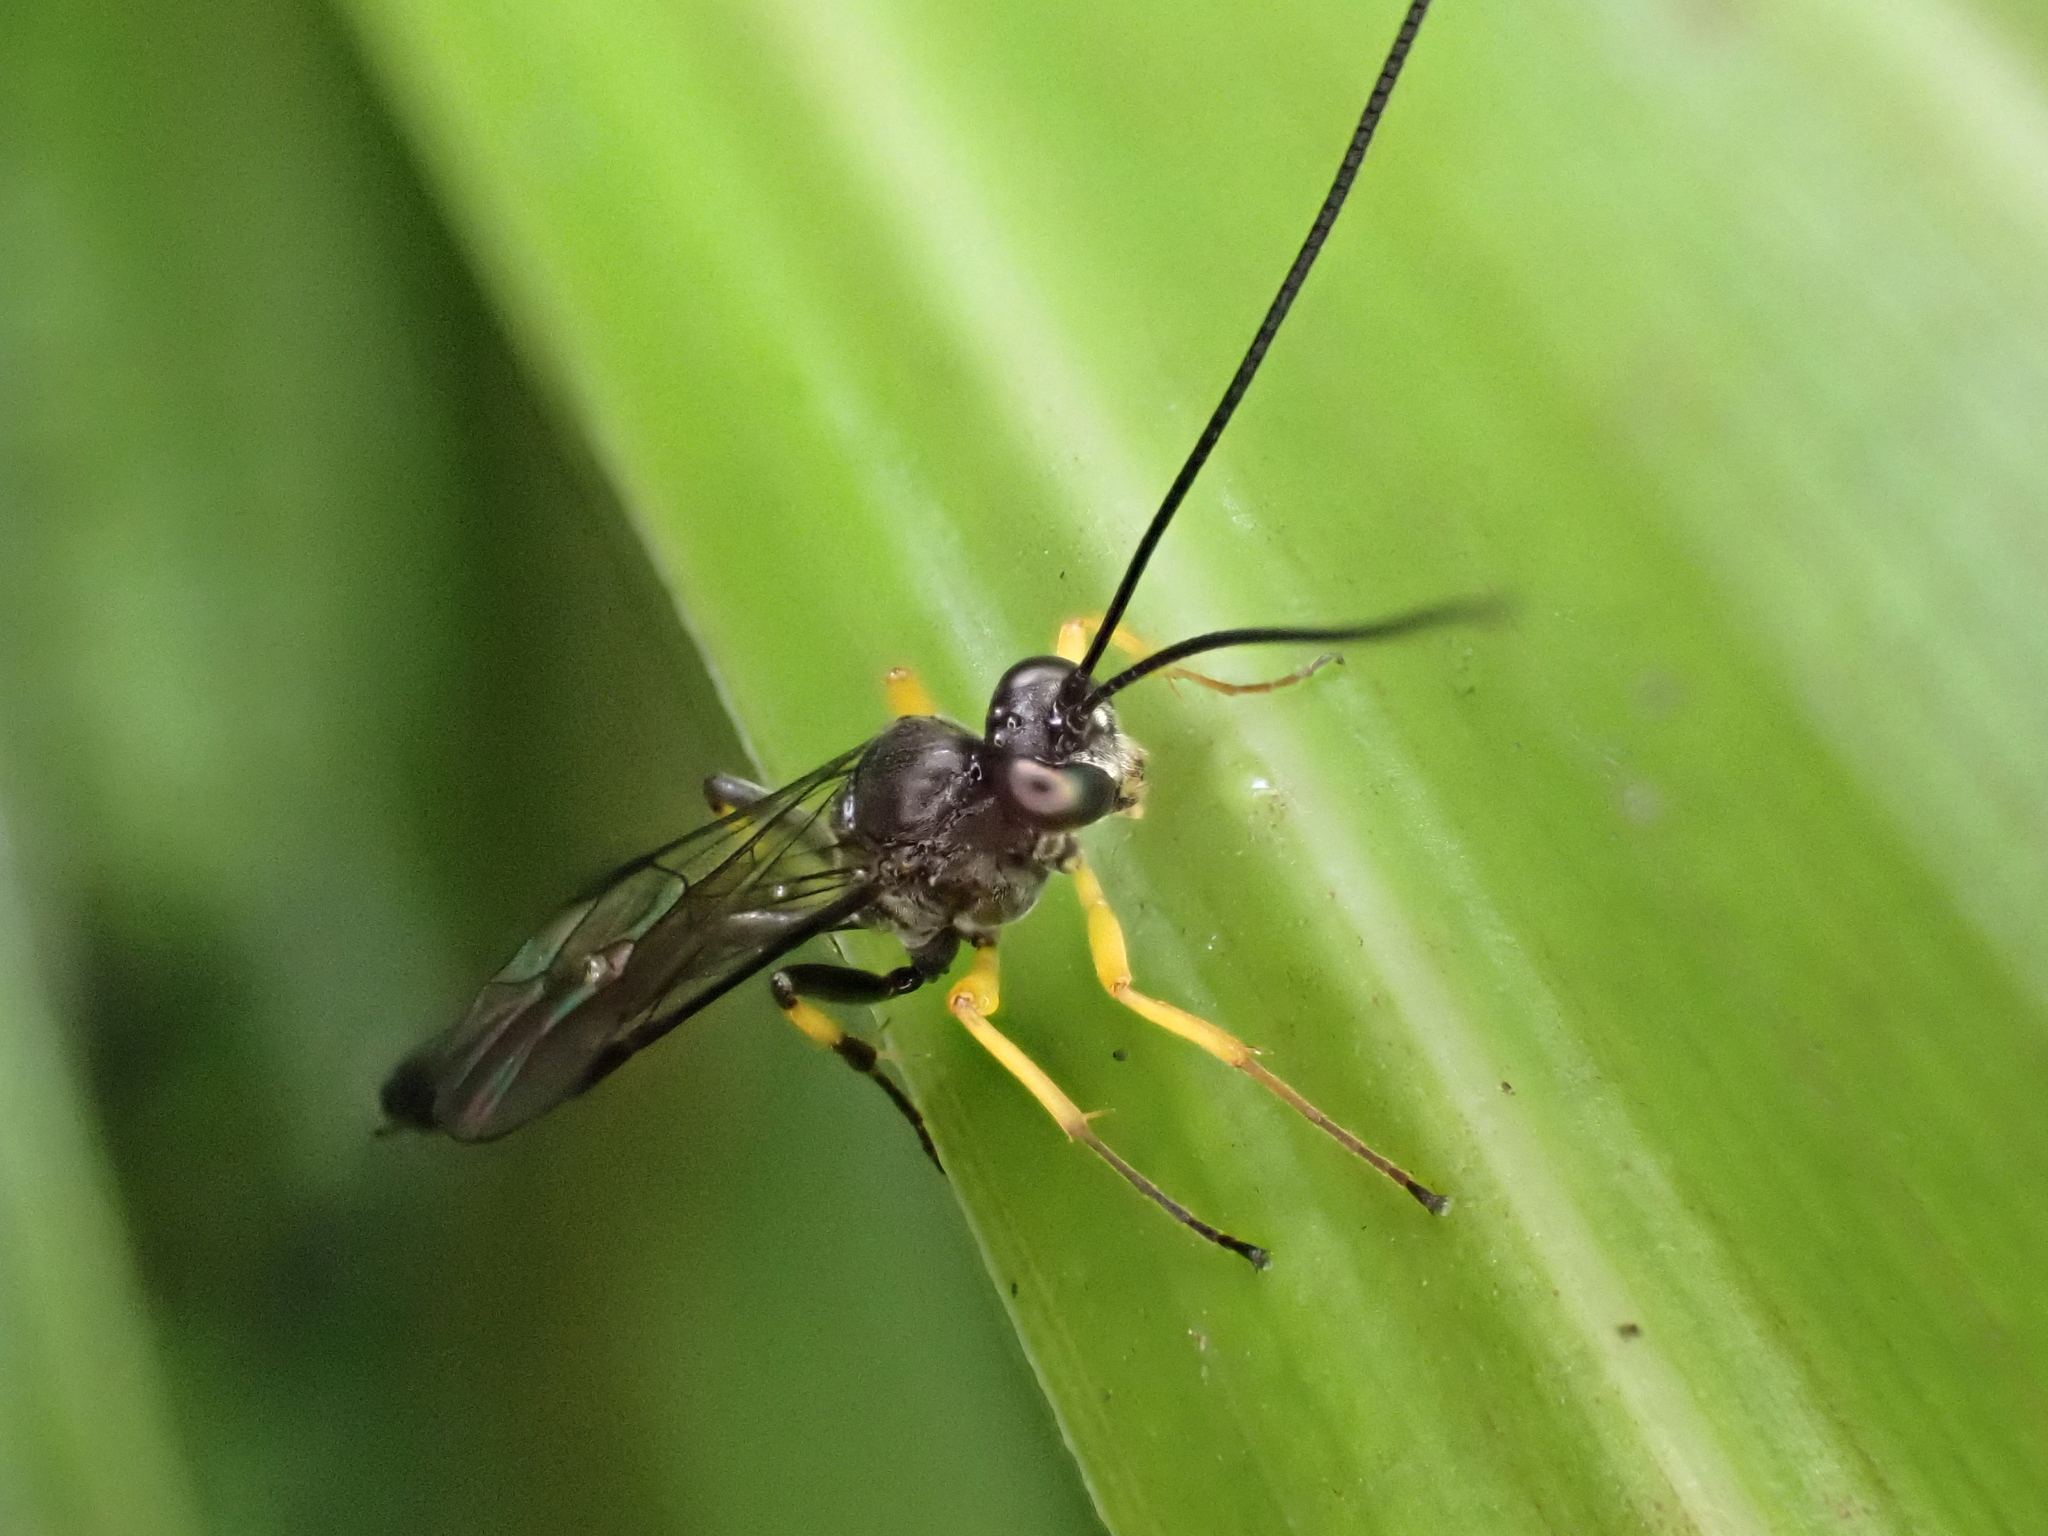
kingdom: Animalia
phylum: Arthropoda
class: Insecta
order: Hymenoptera
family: Ichneumonidae
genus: Dusona
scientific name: Dusona stramineipes
